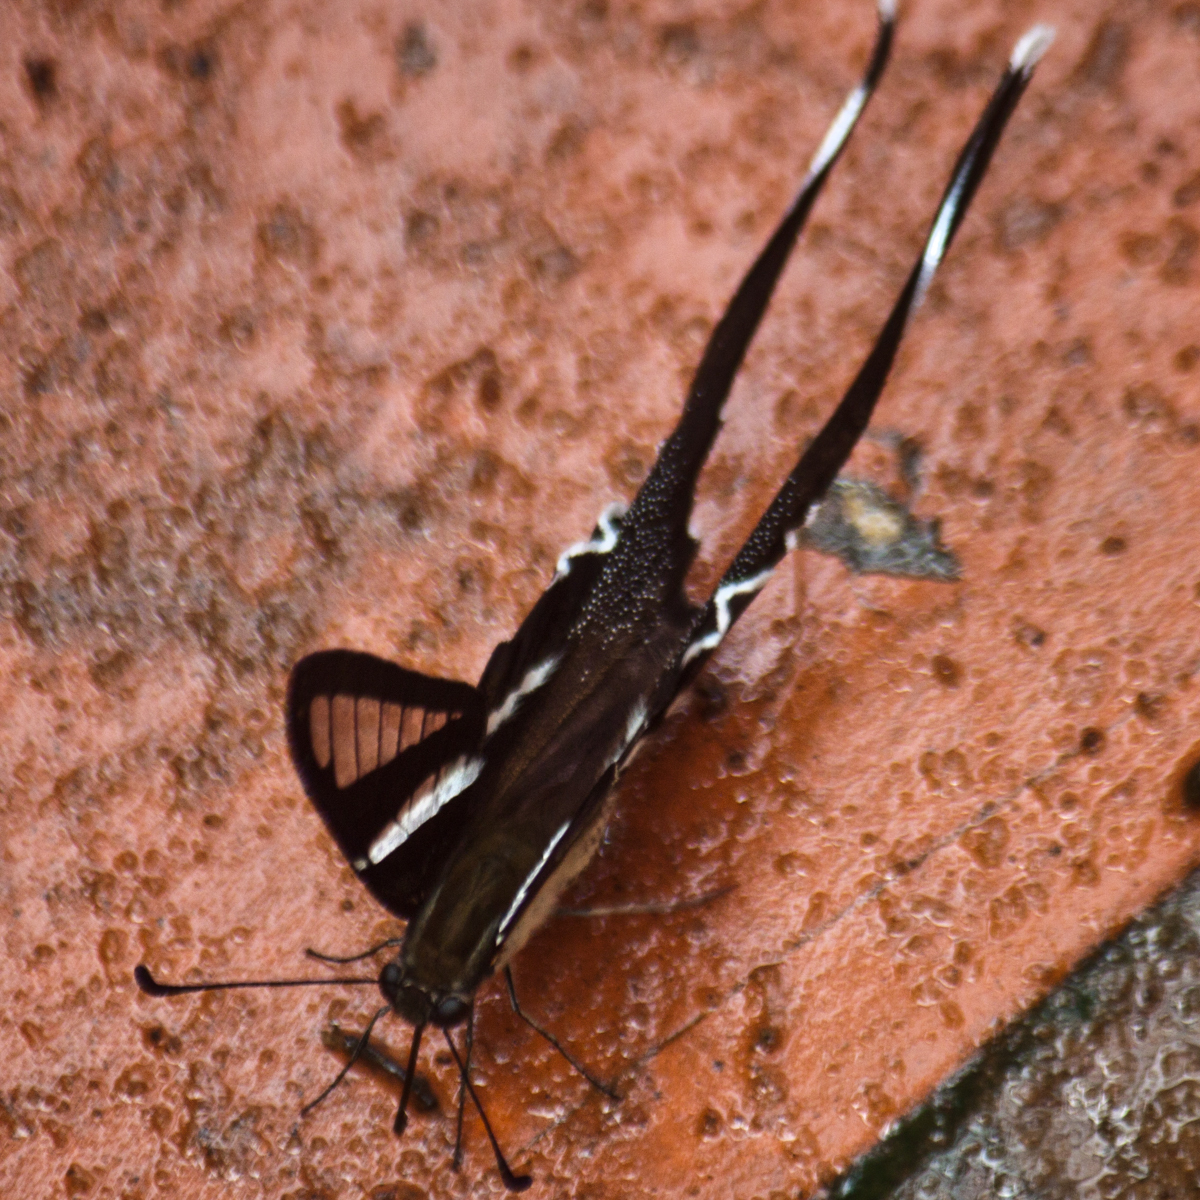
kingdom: Animalia
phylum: Arthropoda
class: Insecta
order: Lepidoptera
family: Papilionidae
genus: Lamproptera
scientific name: Lamproptera curius
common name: White dragontail
